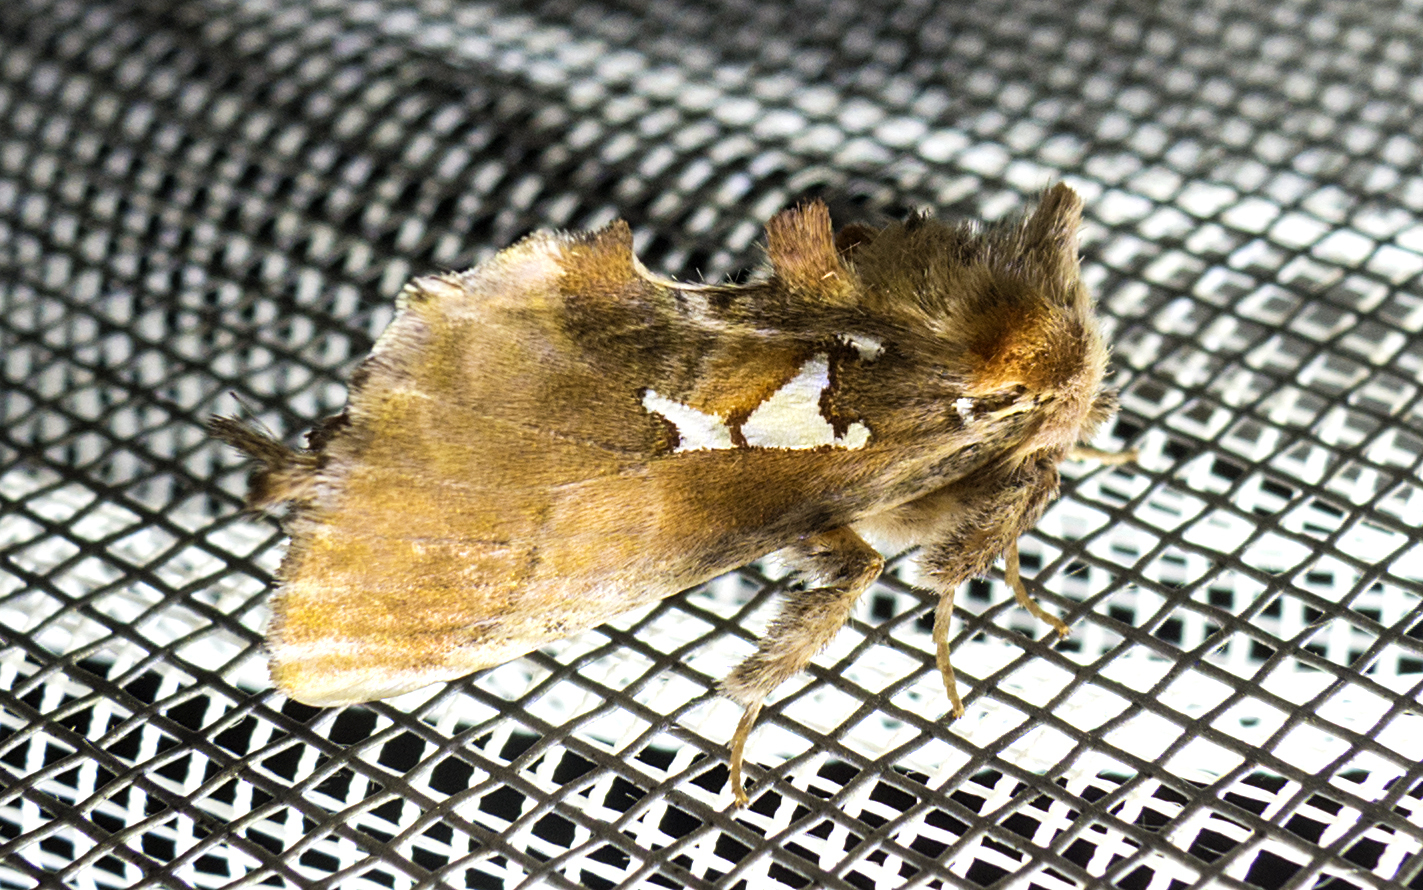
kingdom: Animalia
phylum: Arthropoda
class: Insecta
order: Lepidoptera
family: Notodontidae
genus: Spatalia
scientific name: Spatalia argentina
